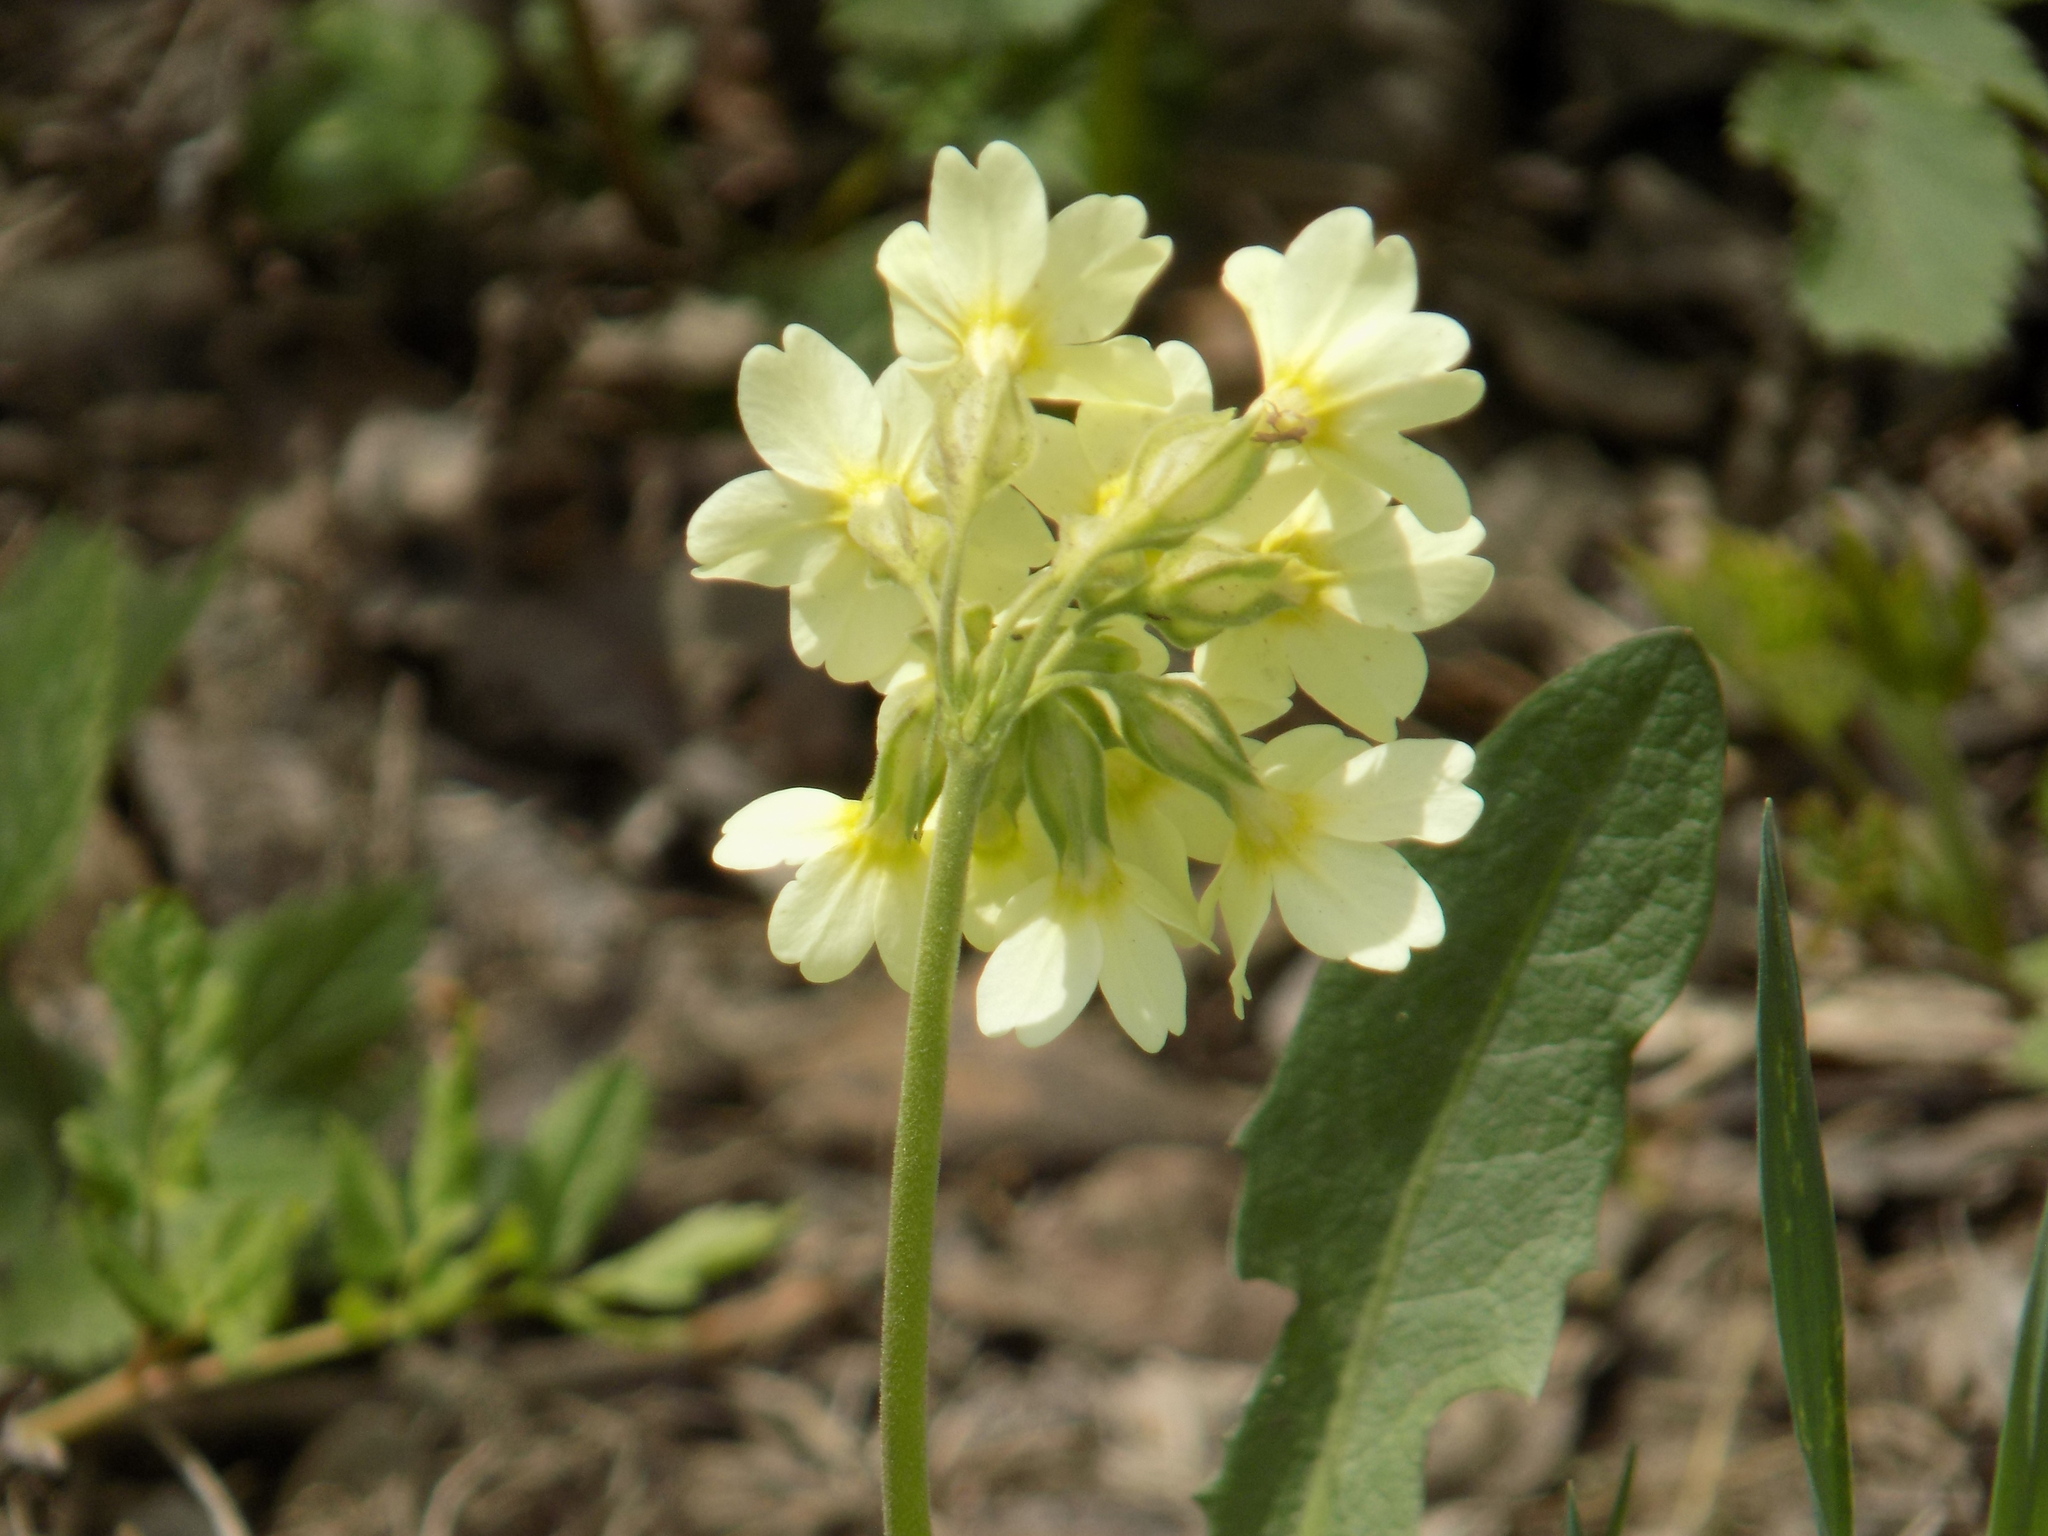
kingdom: Plantae
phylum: Tracheophyta
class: Magnoliopsida
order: Ericales
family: Primulaceae
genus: Primula
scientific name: Primula elatior
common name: Oxlip
